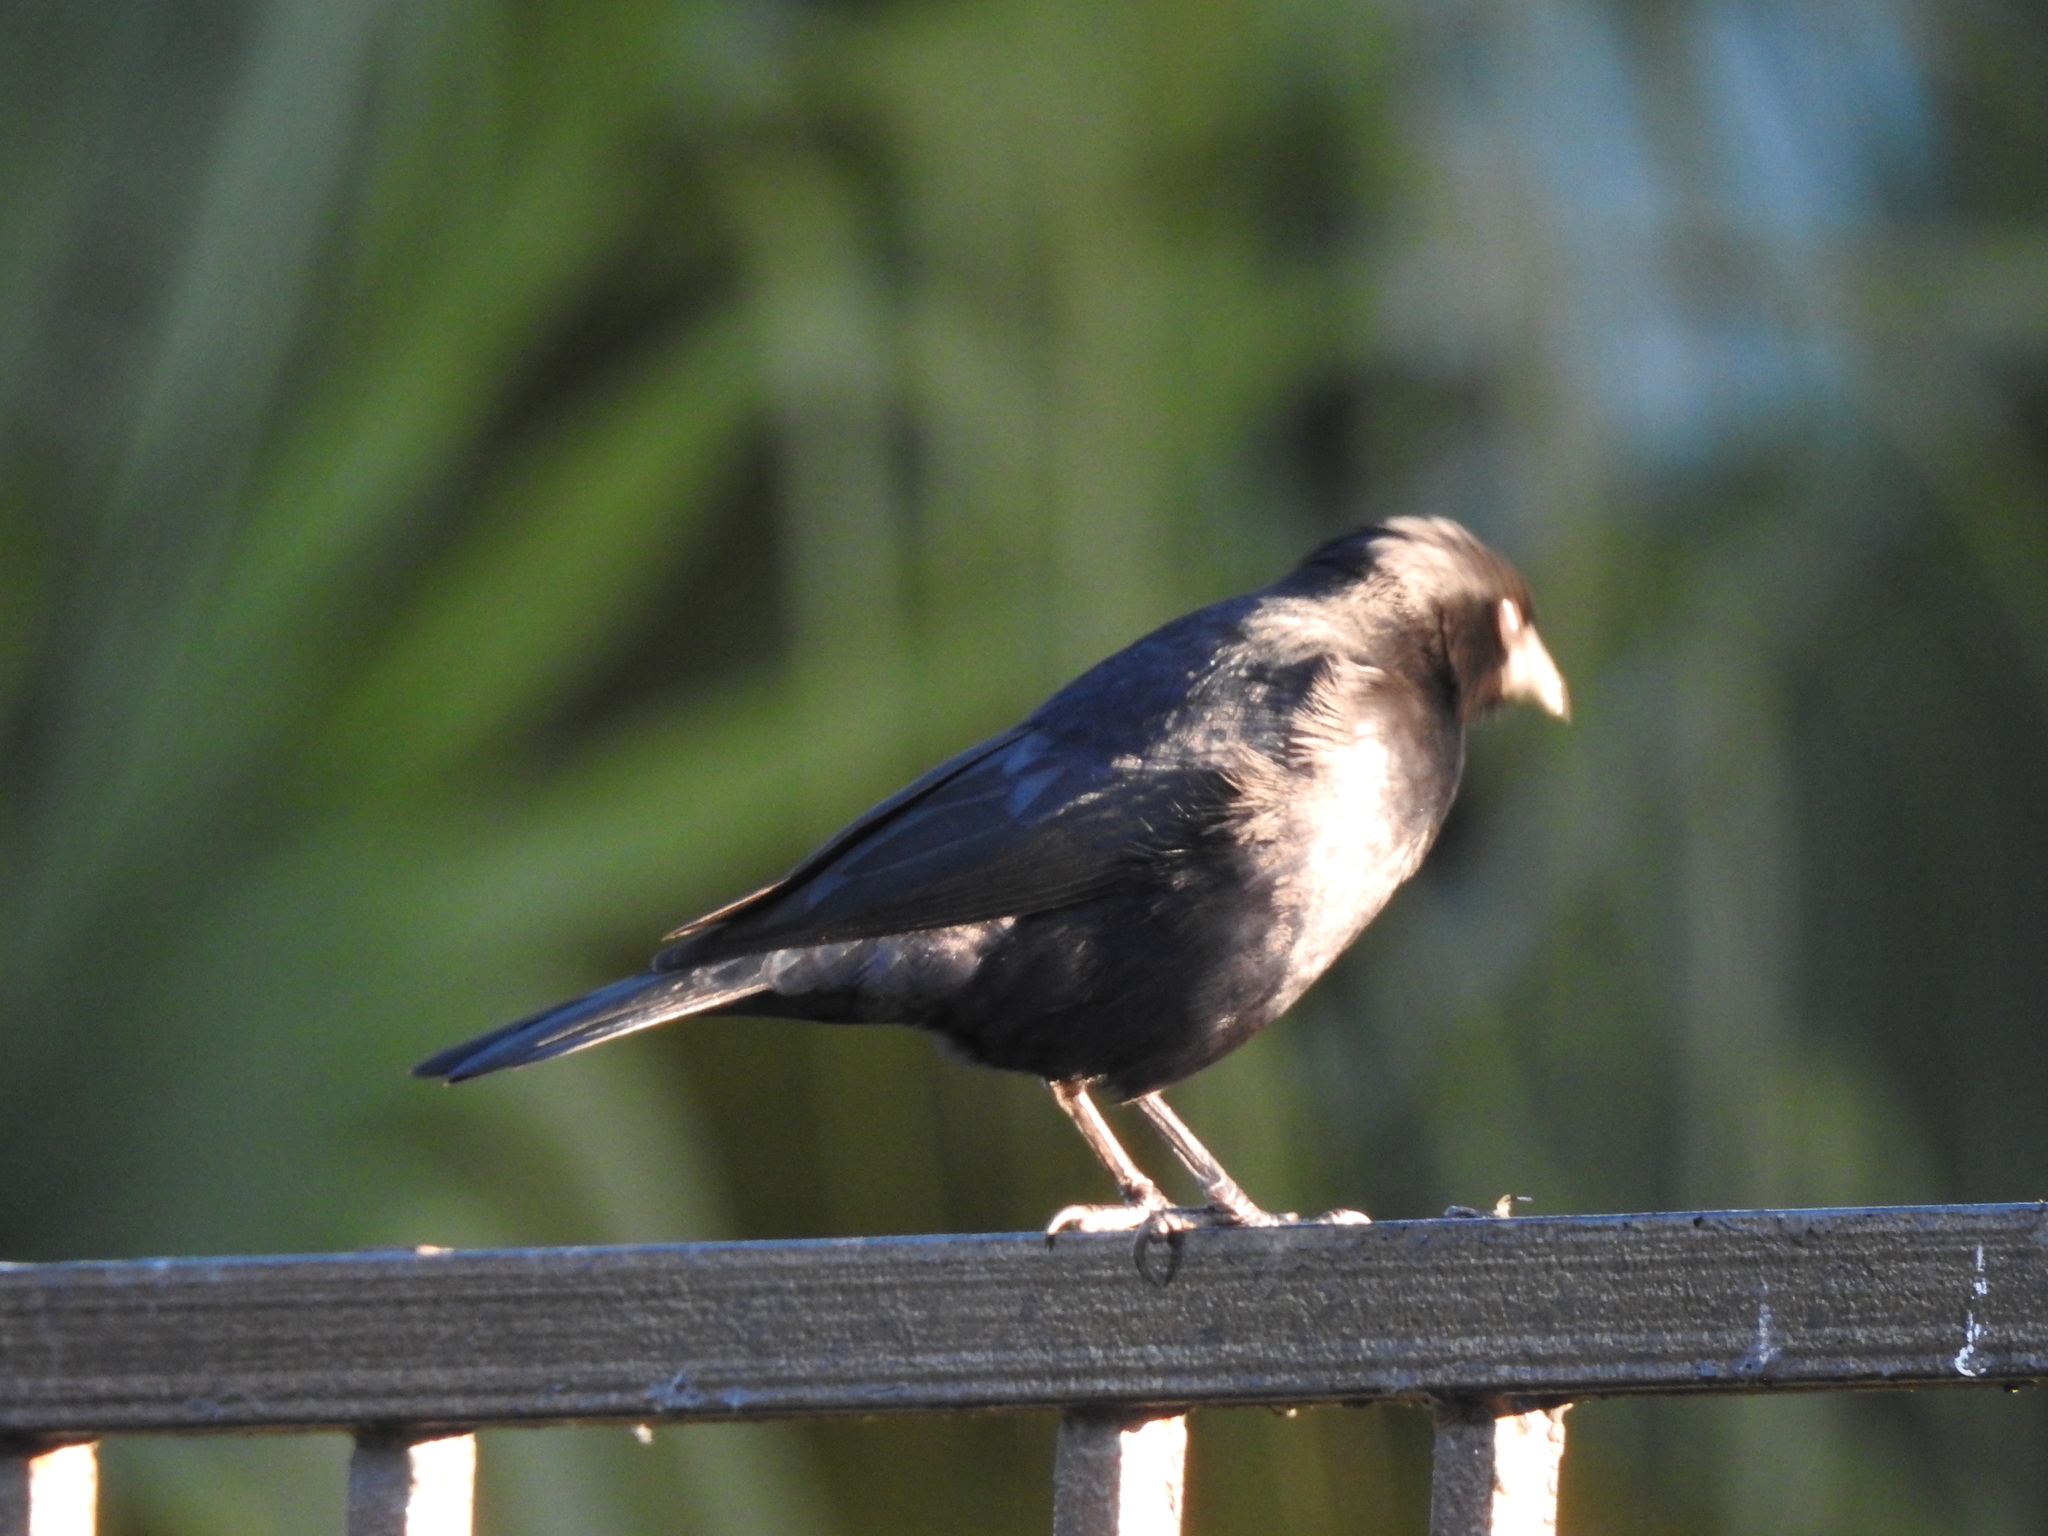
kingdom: Animalia
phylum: Chordata
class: Aves
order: Passeriformes
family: Icteridae
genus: Molothrus
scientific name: Molothrus rufoaxillaris
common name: Screaming cowbird
